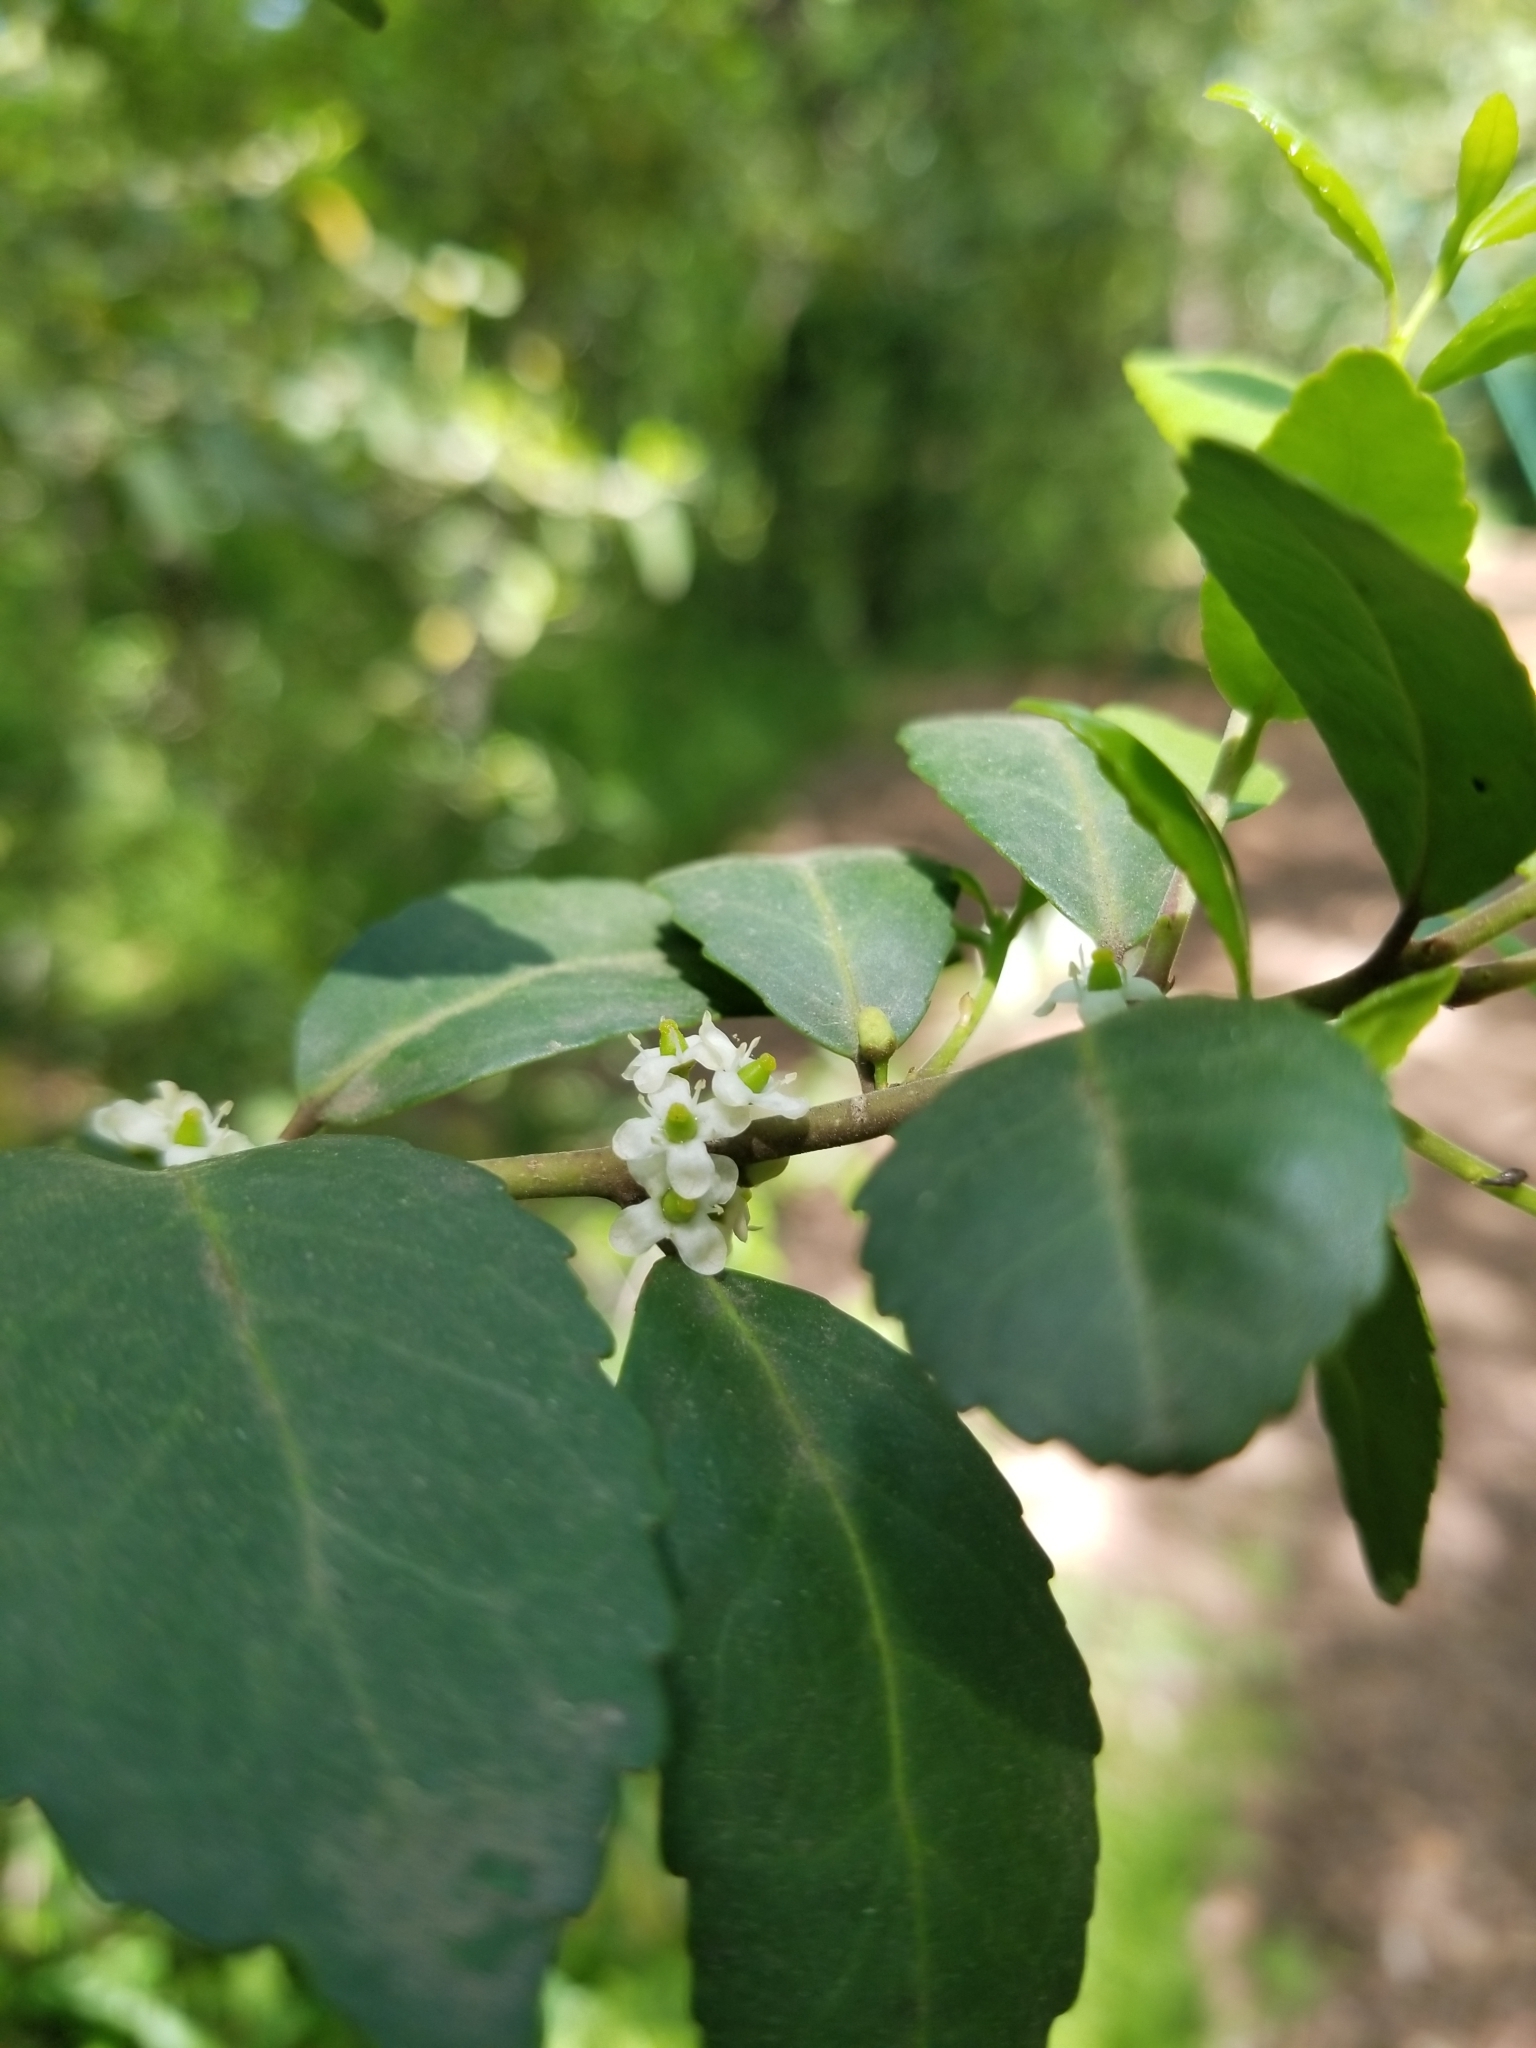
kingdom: Plantae
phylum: Tracheophyta
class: Magnoliopsida
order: Aquifoliales
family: Aquifoliaceae
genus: Ilex
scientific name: Ilex vomitoria
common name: Yaupon holly
